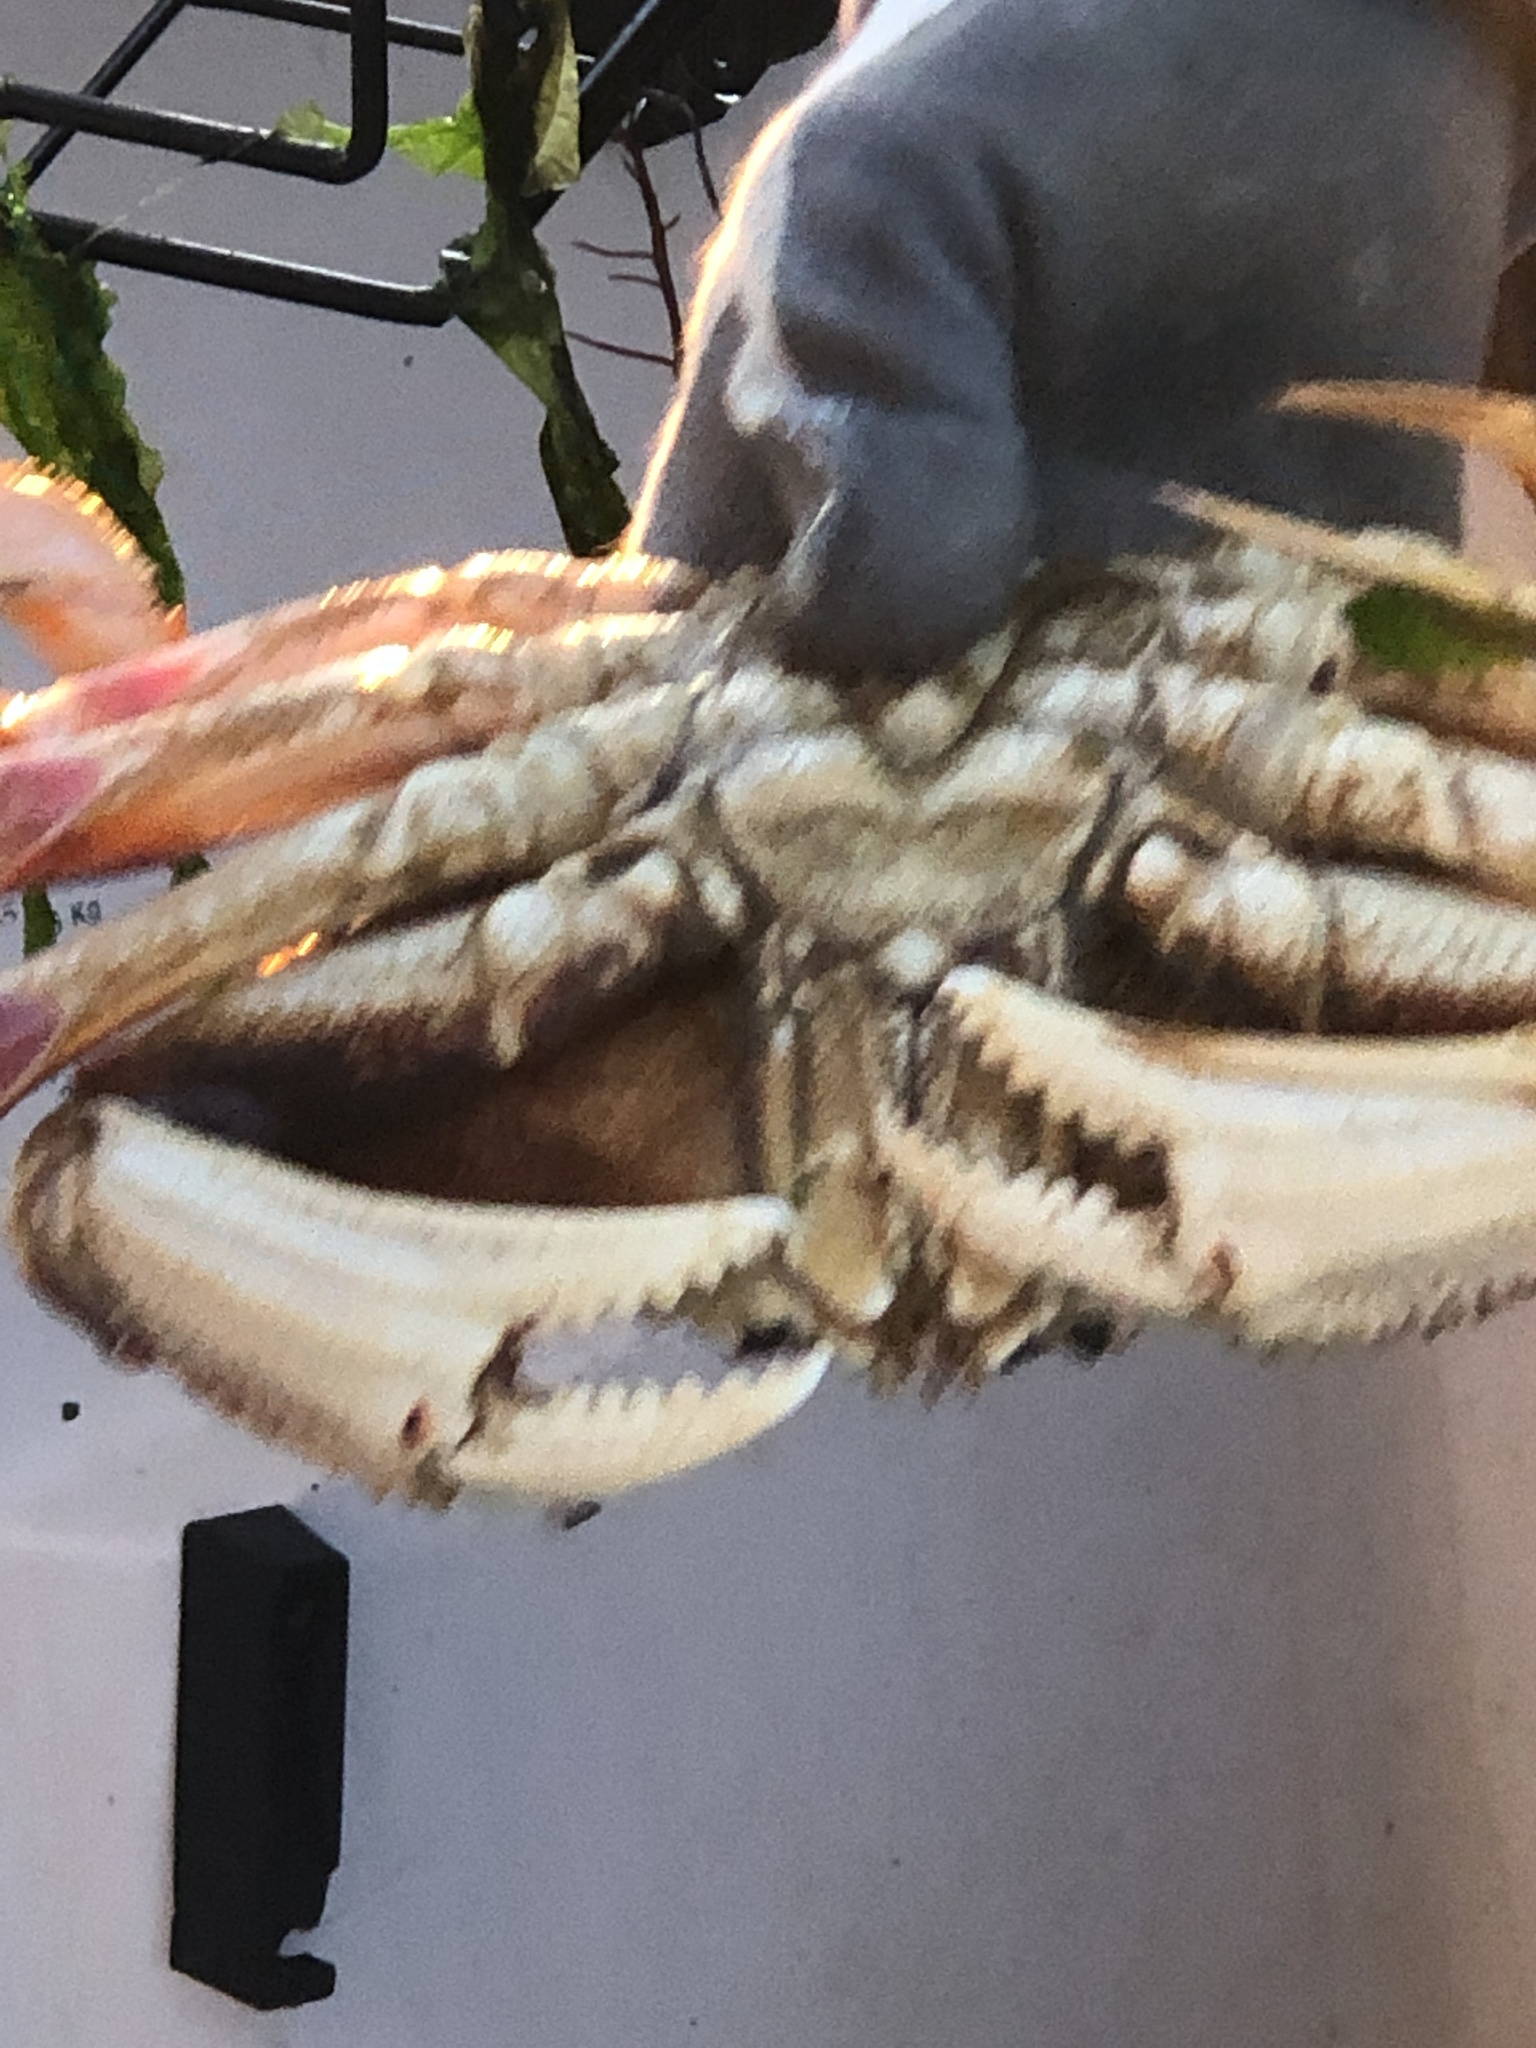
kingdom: Animalia
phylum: Arthropoda
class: Malacostraca
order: Decapoda
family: Cancridae
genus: Metacarcinus
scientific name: Metacarcinus magister
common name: Californian crab
